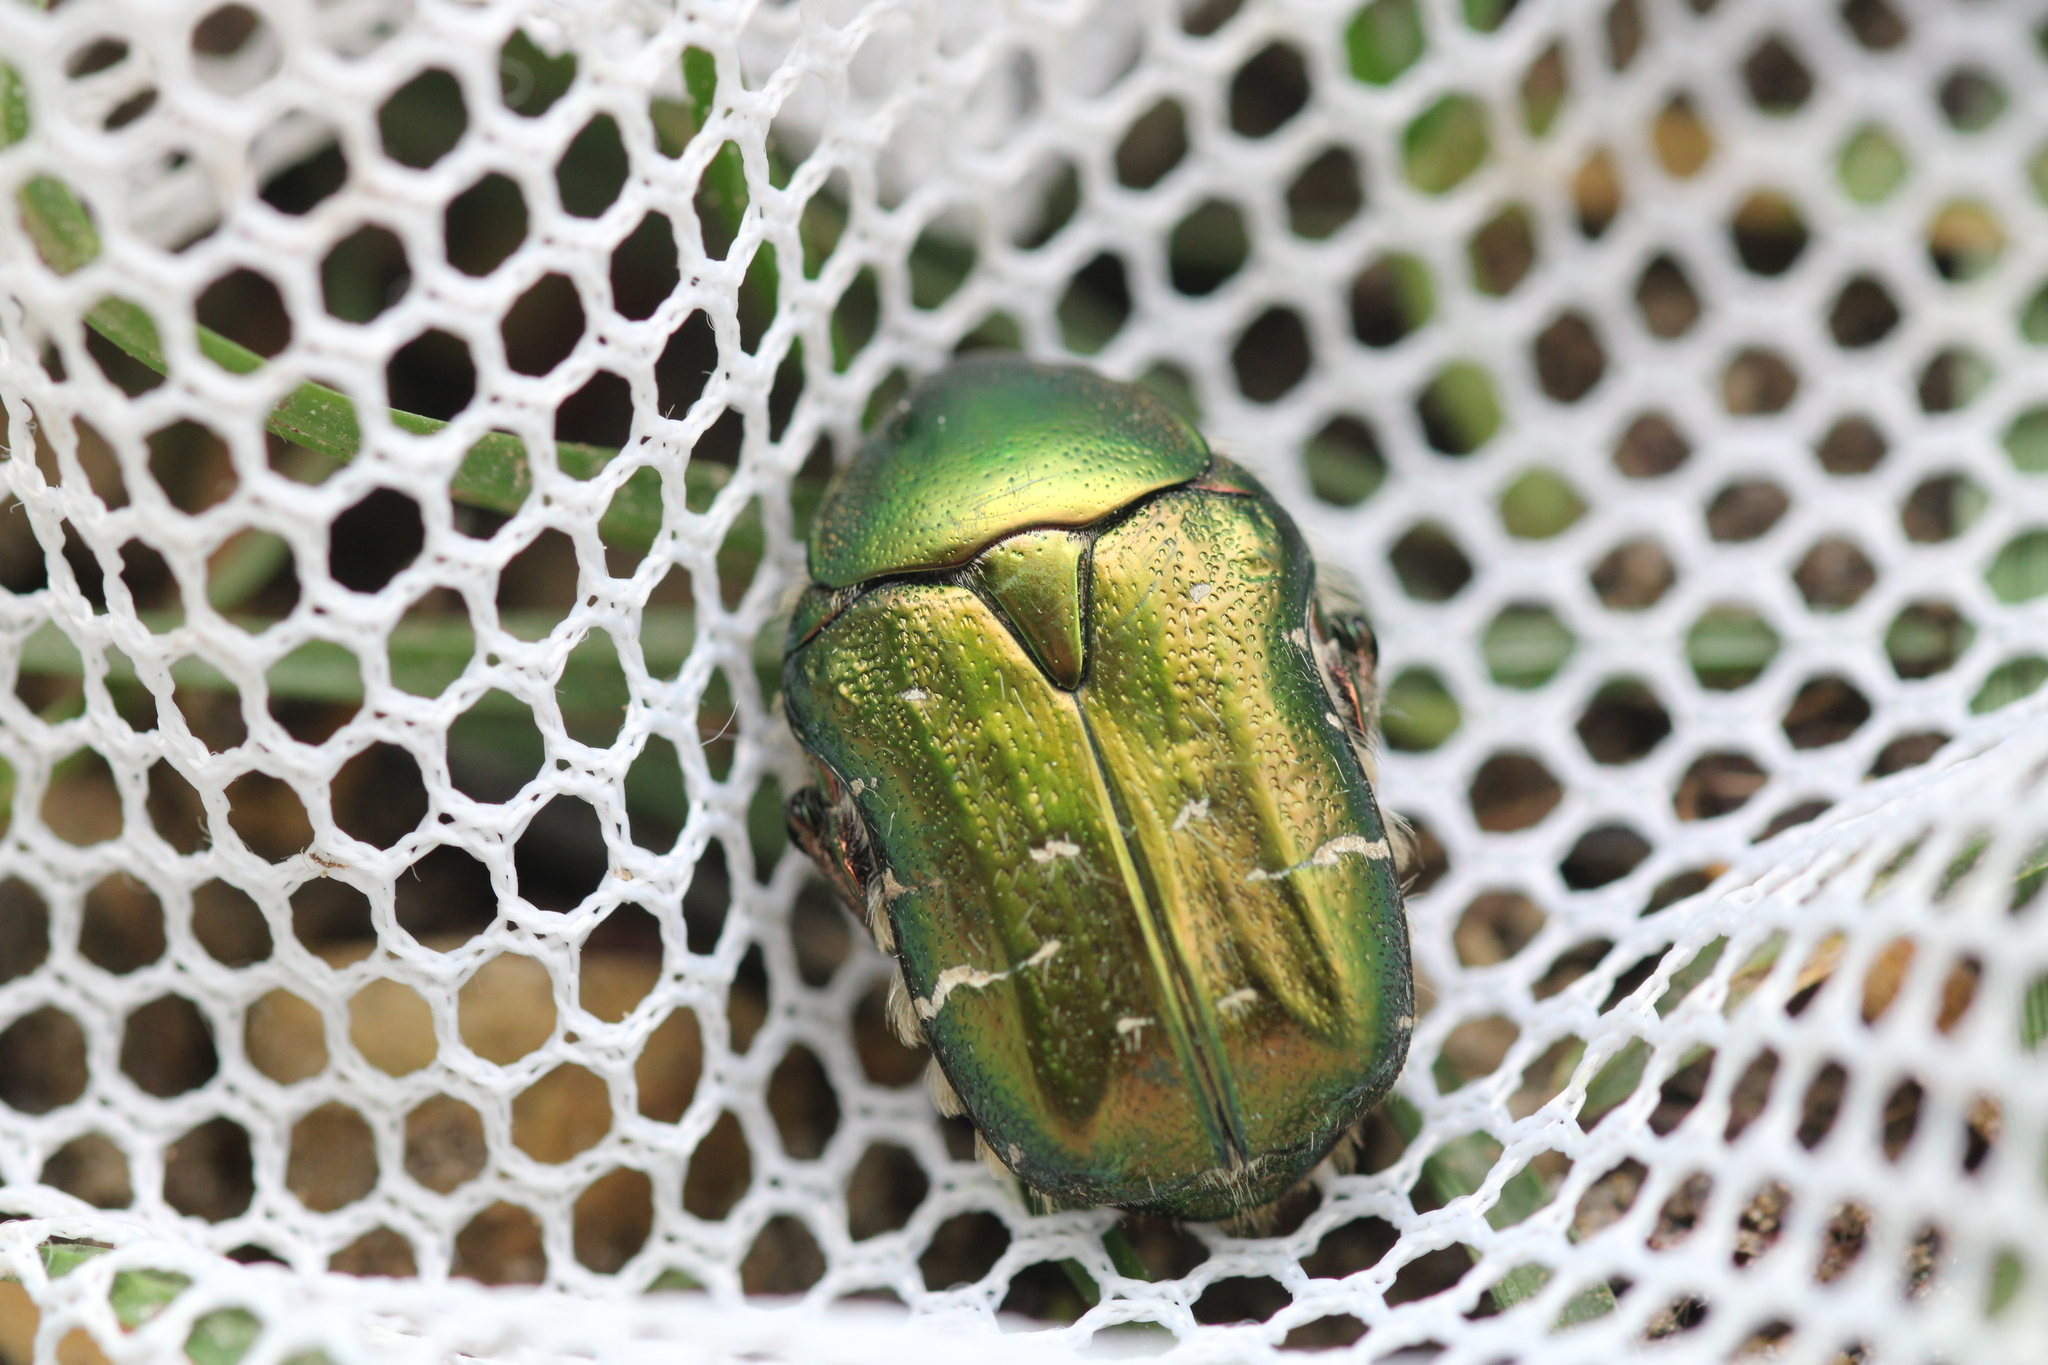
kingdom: Animalia
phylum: Arthropoda
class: Insecta
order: Coleoptera
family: Scarabaeidae
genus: Cetonia
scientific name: Cetonia aurata
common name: Rose chafer
